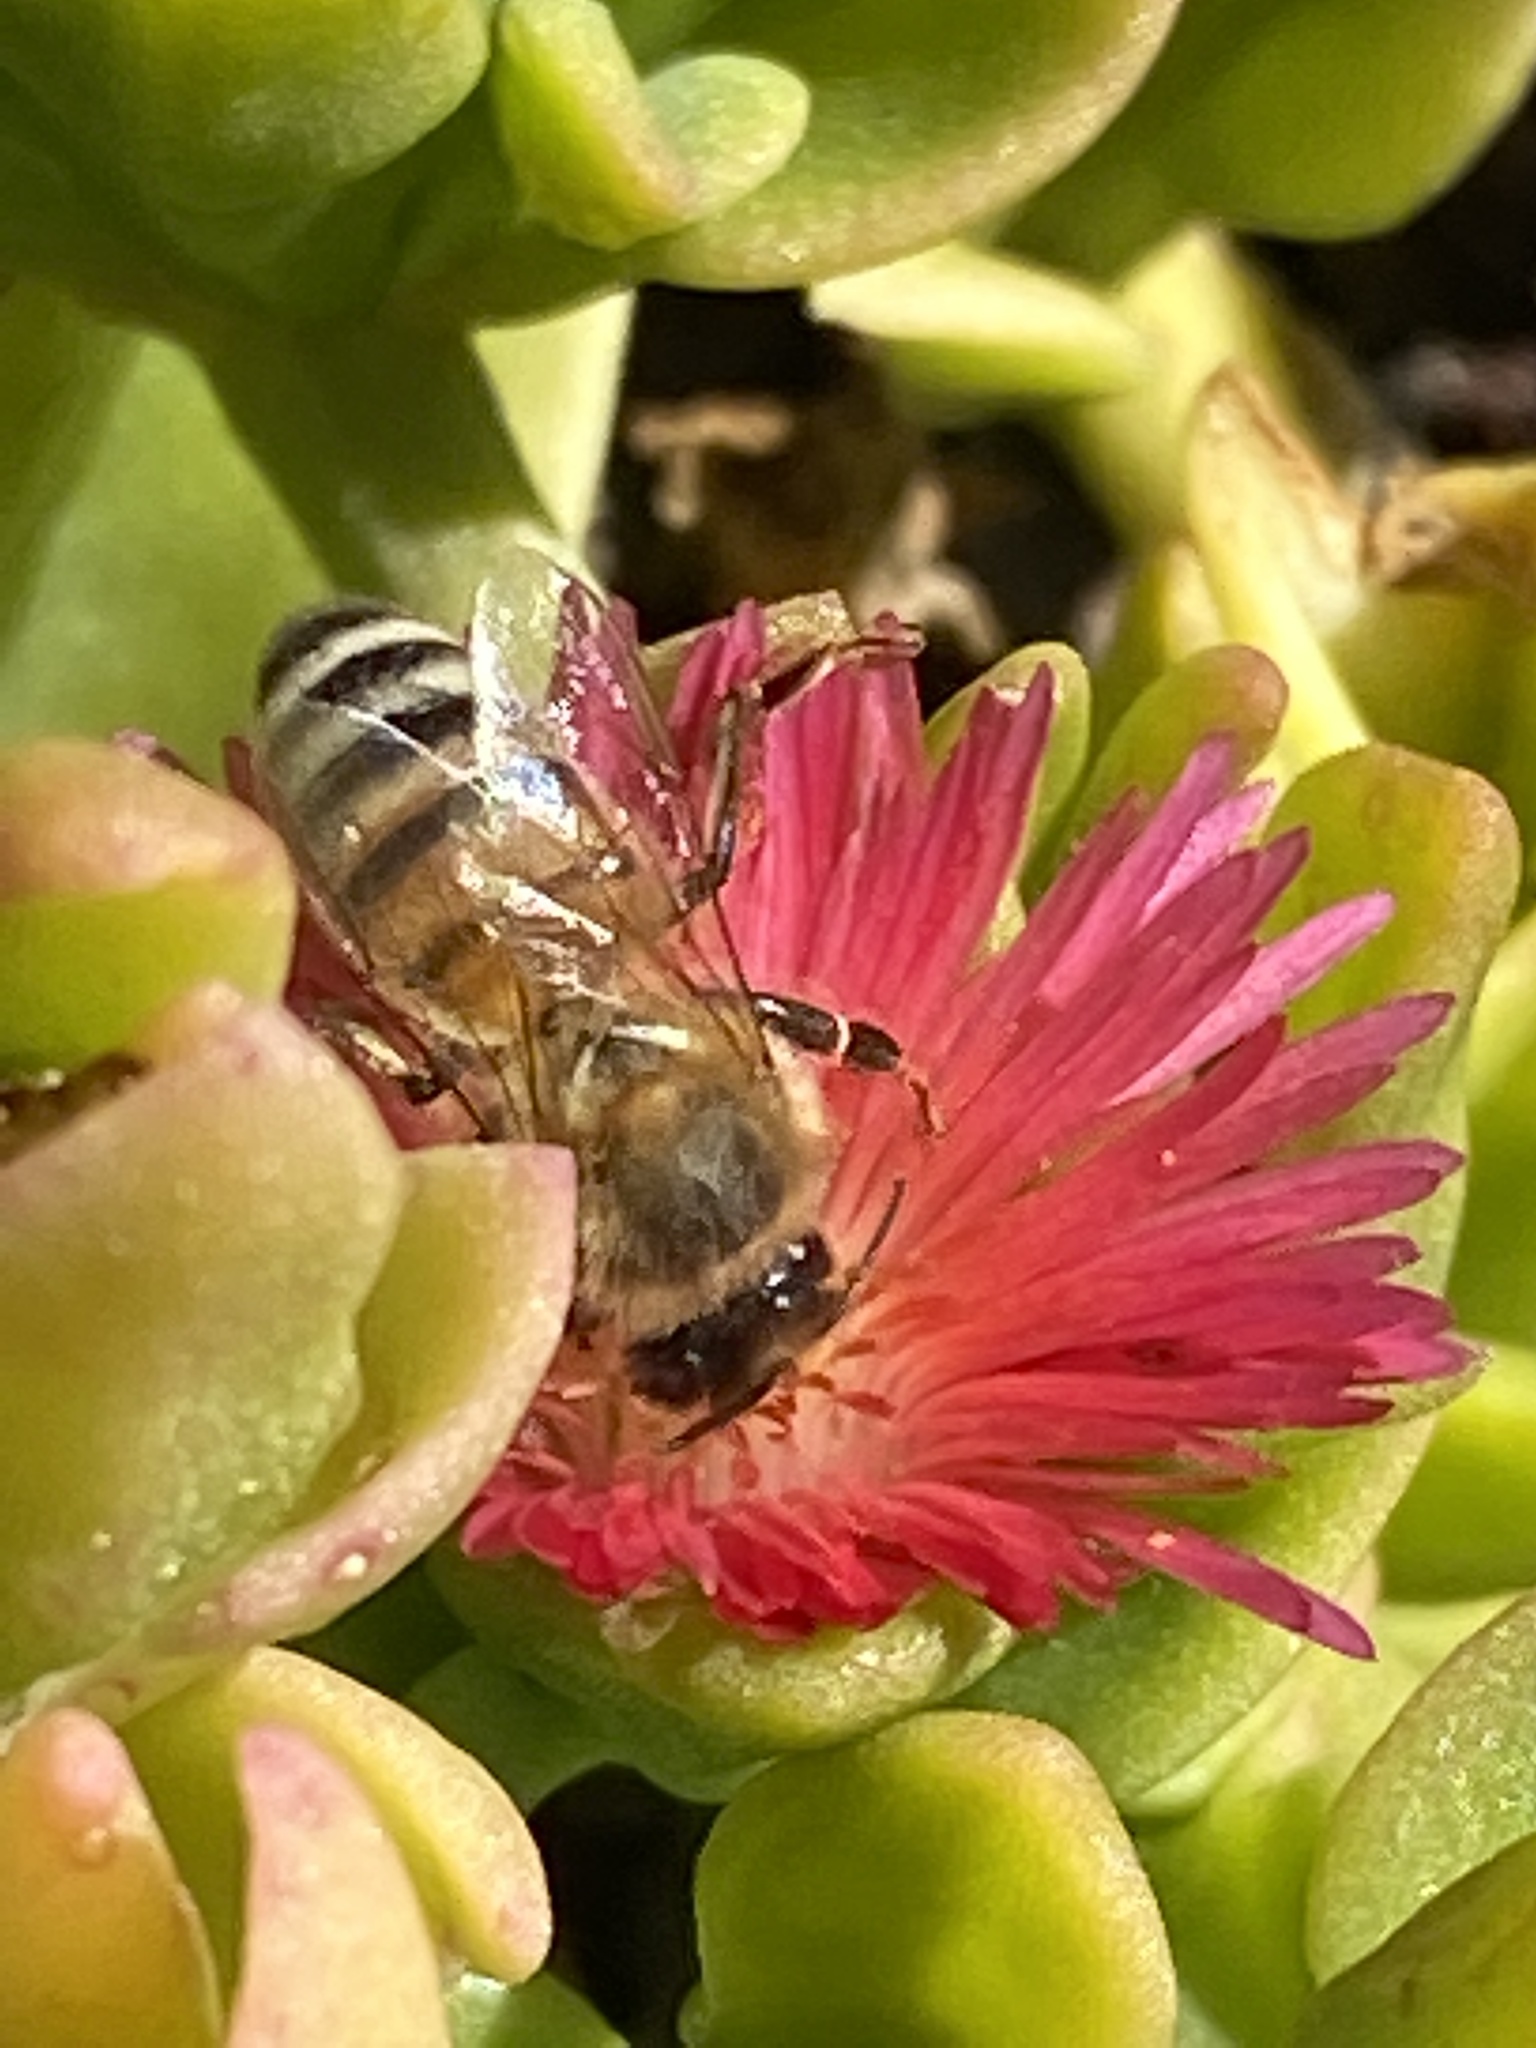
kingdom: Animalia
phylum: Arthropoda
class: Insecta
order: Hymenoptera
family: Apidae
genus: Apis
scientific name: Apis mellifera
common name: Honey bee
